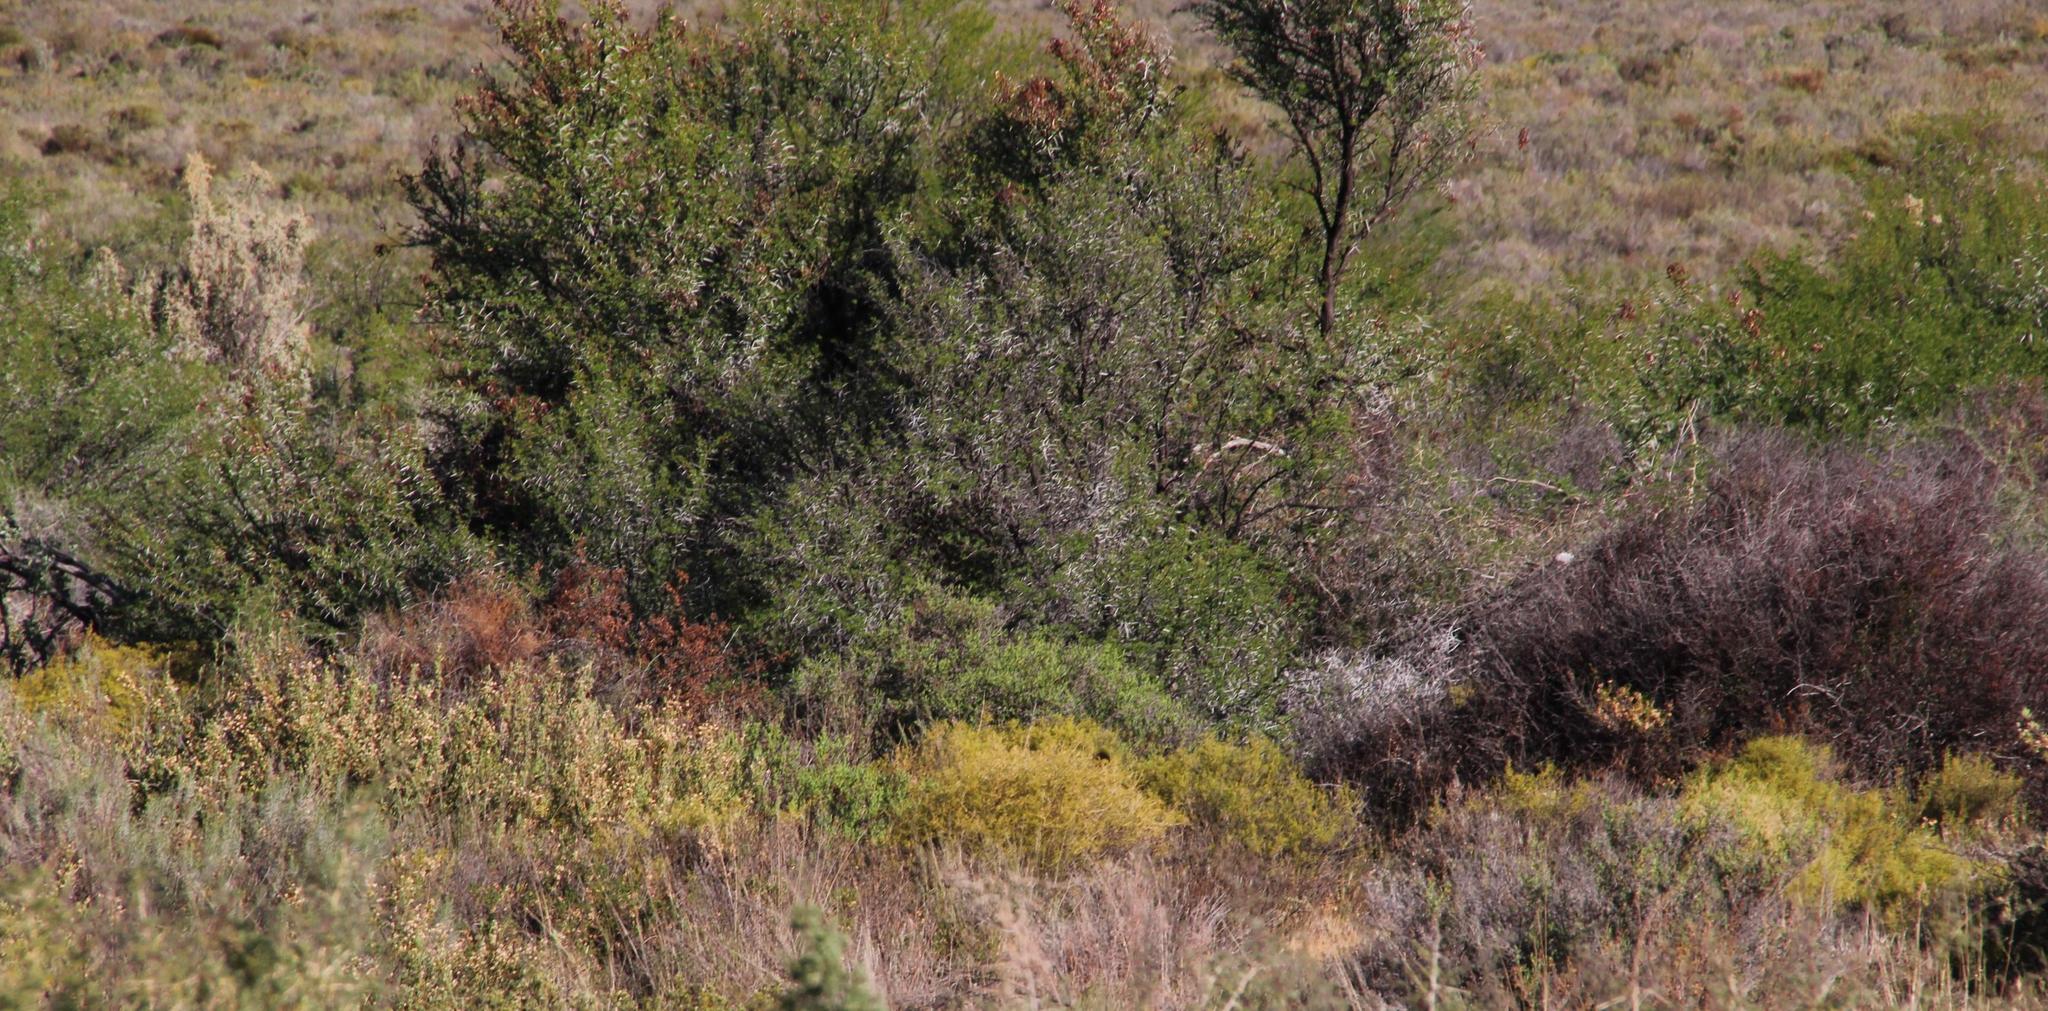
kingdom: Plantae
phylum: Tracheophyta
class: Magnoliopsida
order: Fagales
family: Casuarinaceae
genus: Casuarina
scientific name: Casuarina cunninghamiana
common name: River sheoak
